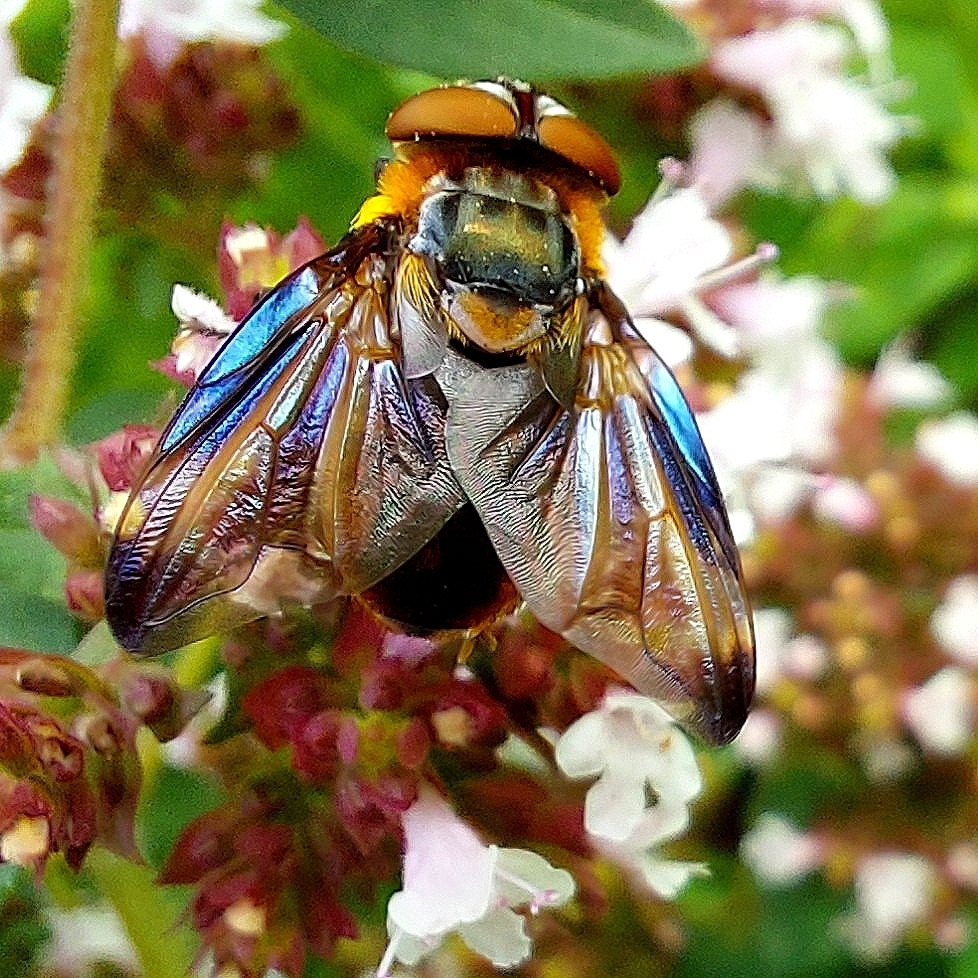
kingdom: Animalia
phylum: Arthropoda
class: Insecta
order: Diptera
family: Tachinidae
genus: Phasia
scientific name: Phasia hemiptera
